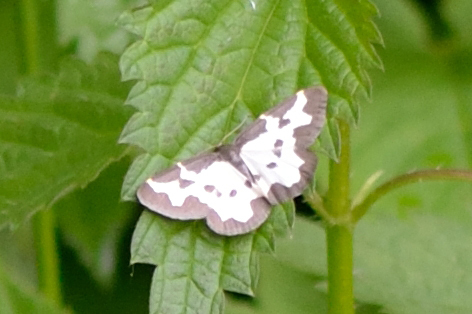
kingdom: Animalia
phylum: Arthropoda
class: Insecta
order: Lepidoptera
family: Geometridae
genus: Lomaspilis
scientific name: Lomaspilis marginata
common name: Clouded border
